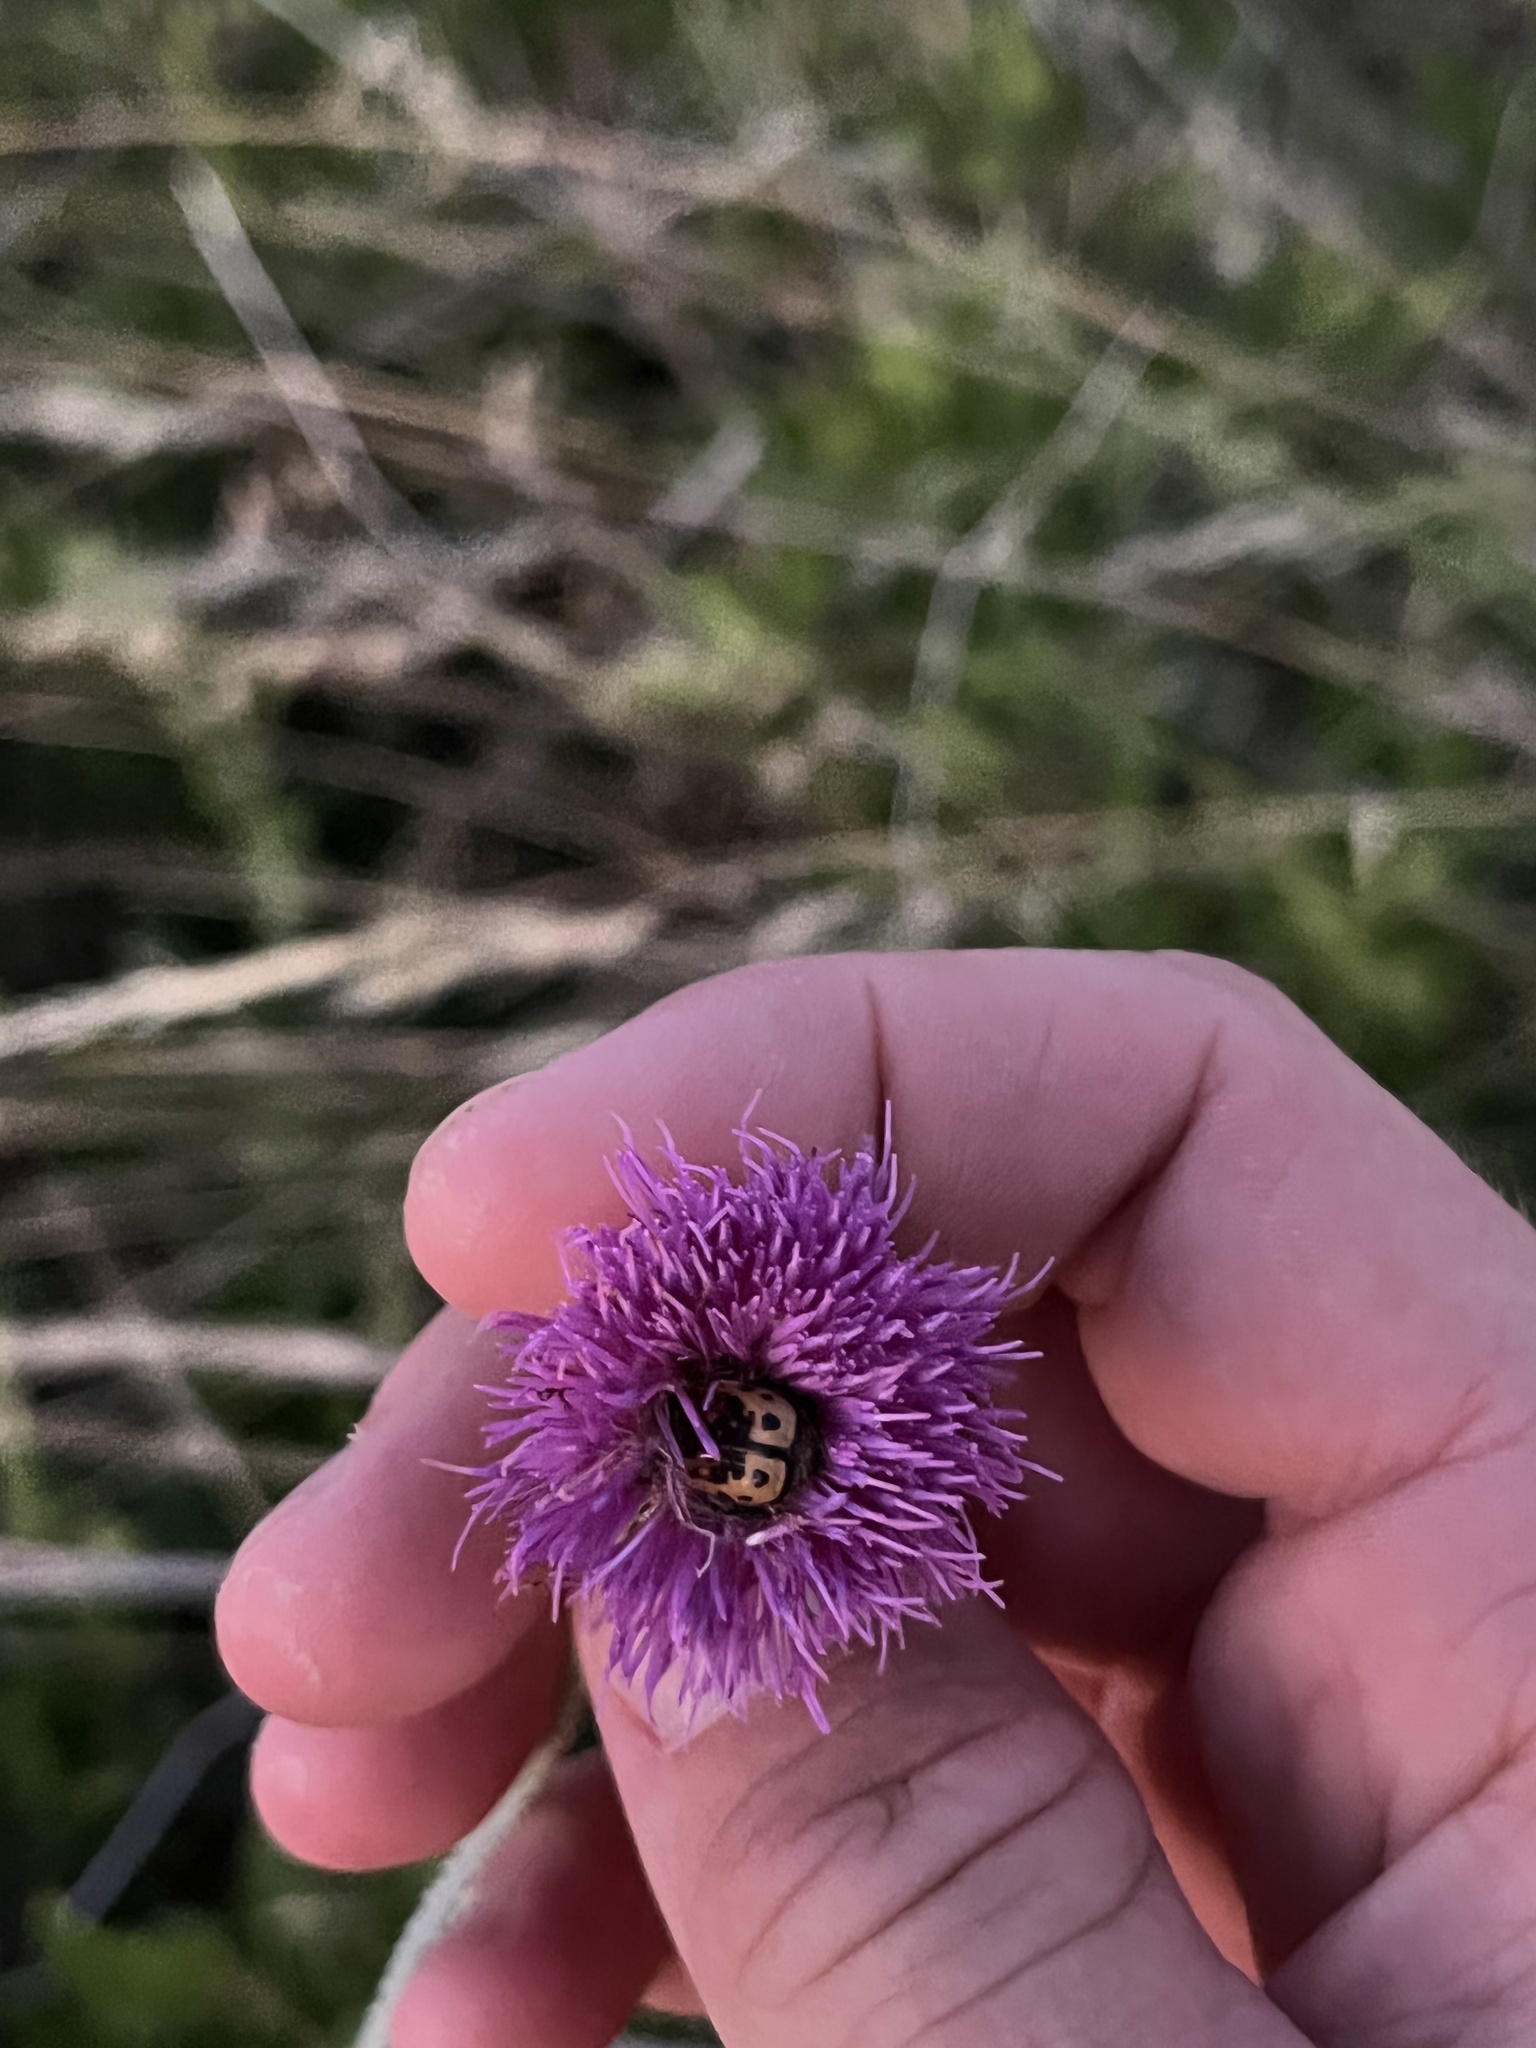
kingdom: Animalia
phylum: Arthropoda
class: Insecta
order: Coleoptera
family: Scarabaeidae
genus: Euphoria
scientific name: Euphoria kernii
